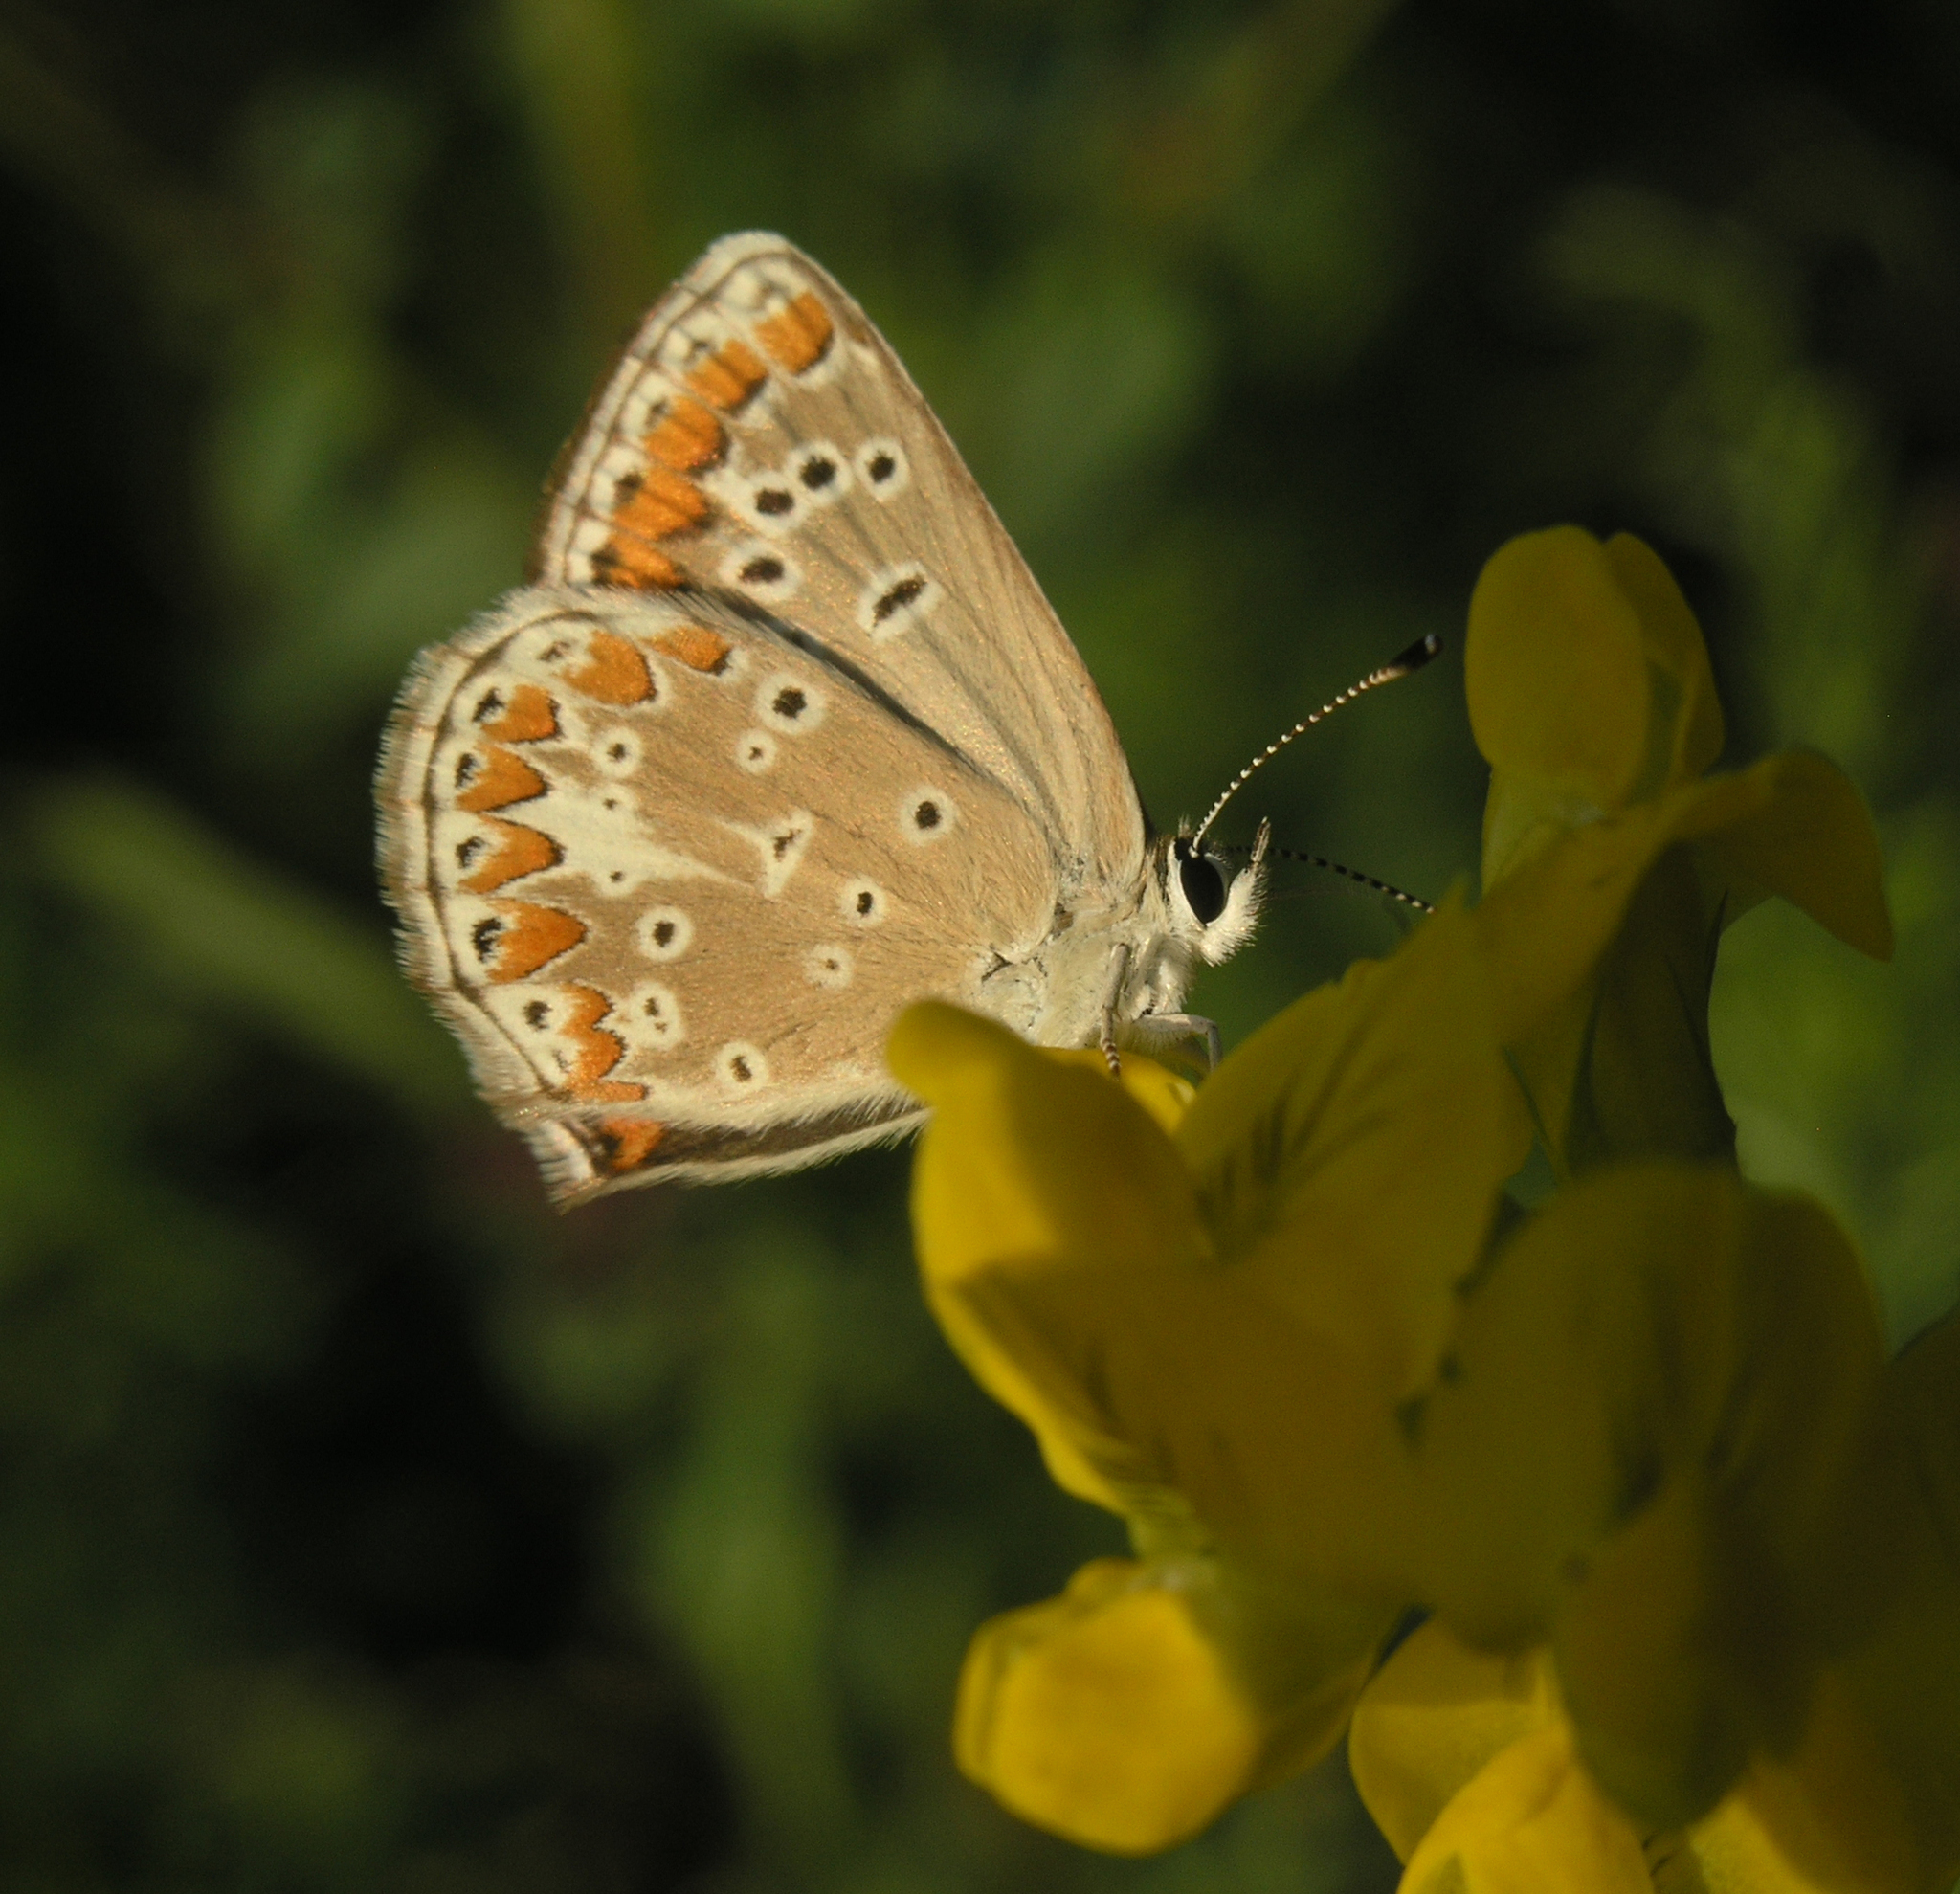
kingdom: Plantae
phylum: Tracheophyta
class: Magnoliopsida
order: Fabales
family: Fabaceae
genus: Lathyrus
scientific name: Lathyrus pratensis
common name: Meadow vetchling
